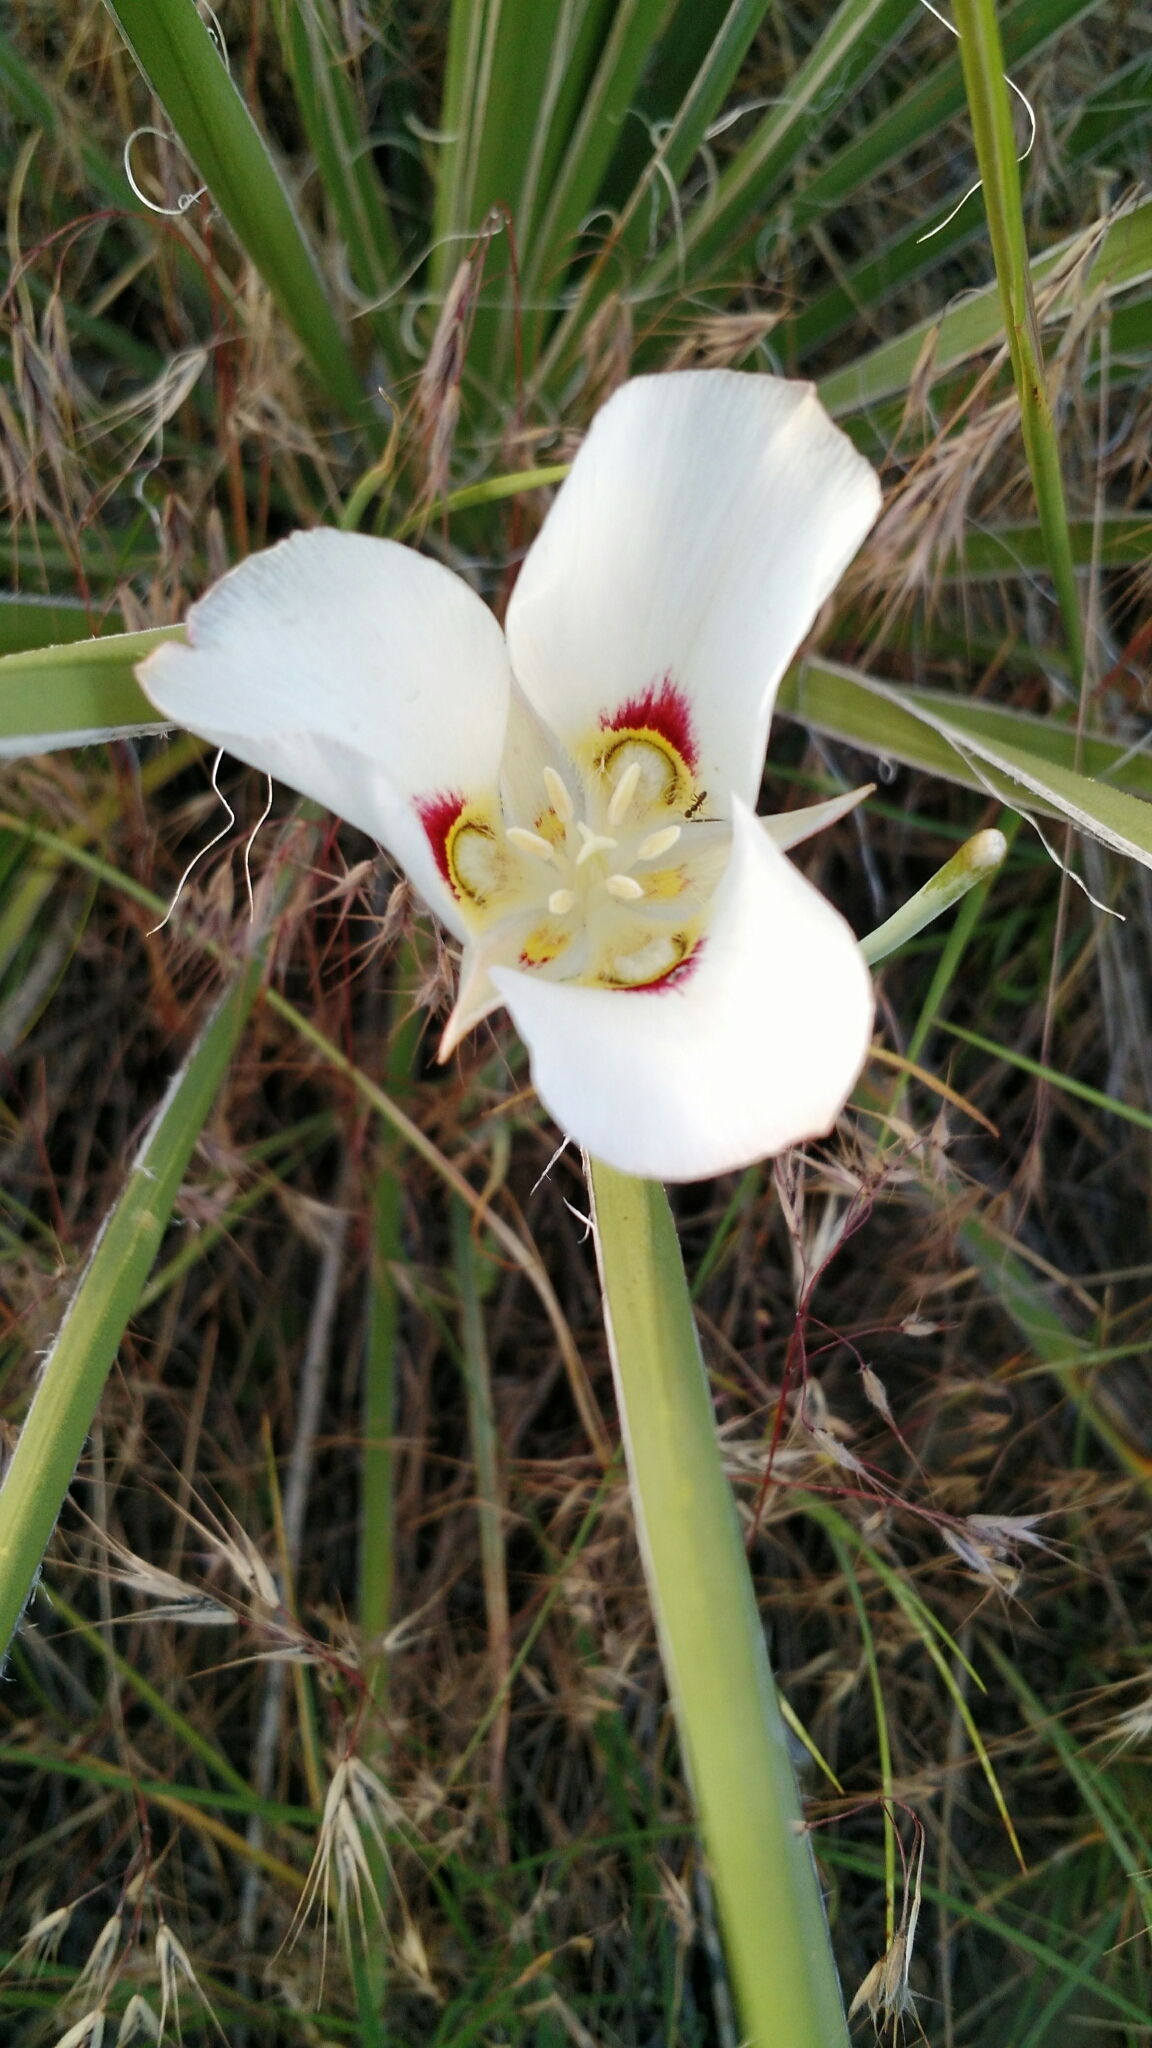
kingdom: Plantae
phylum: Tracheophyta
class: Liliopsida
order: Liliales
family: Liliaceae
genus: Calochortus
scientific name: Calochortus nuttallii
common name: Sego-lily
